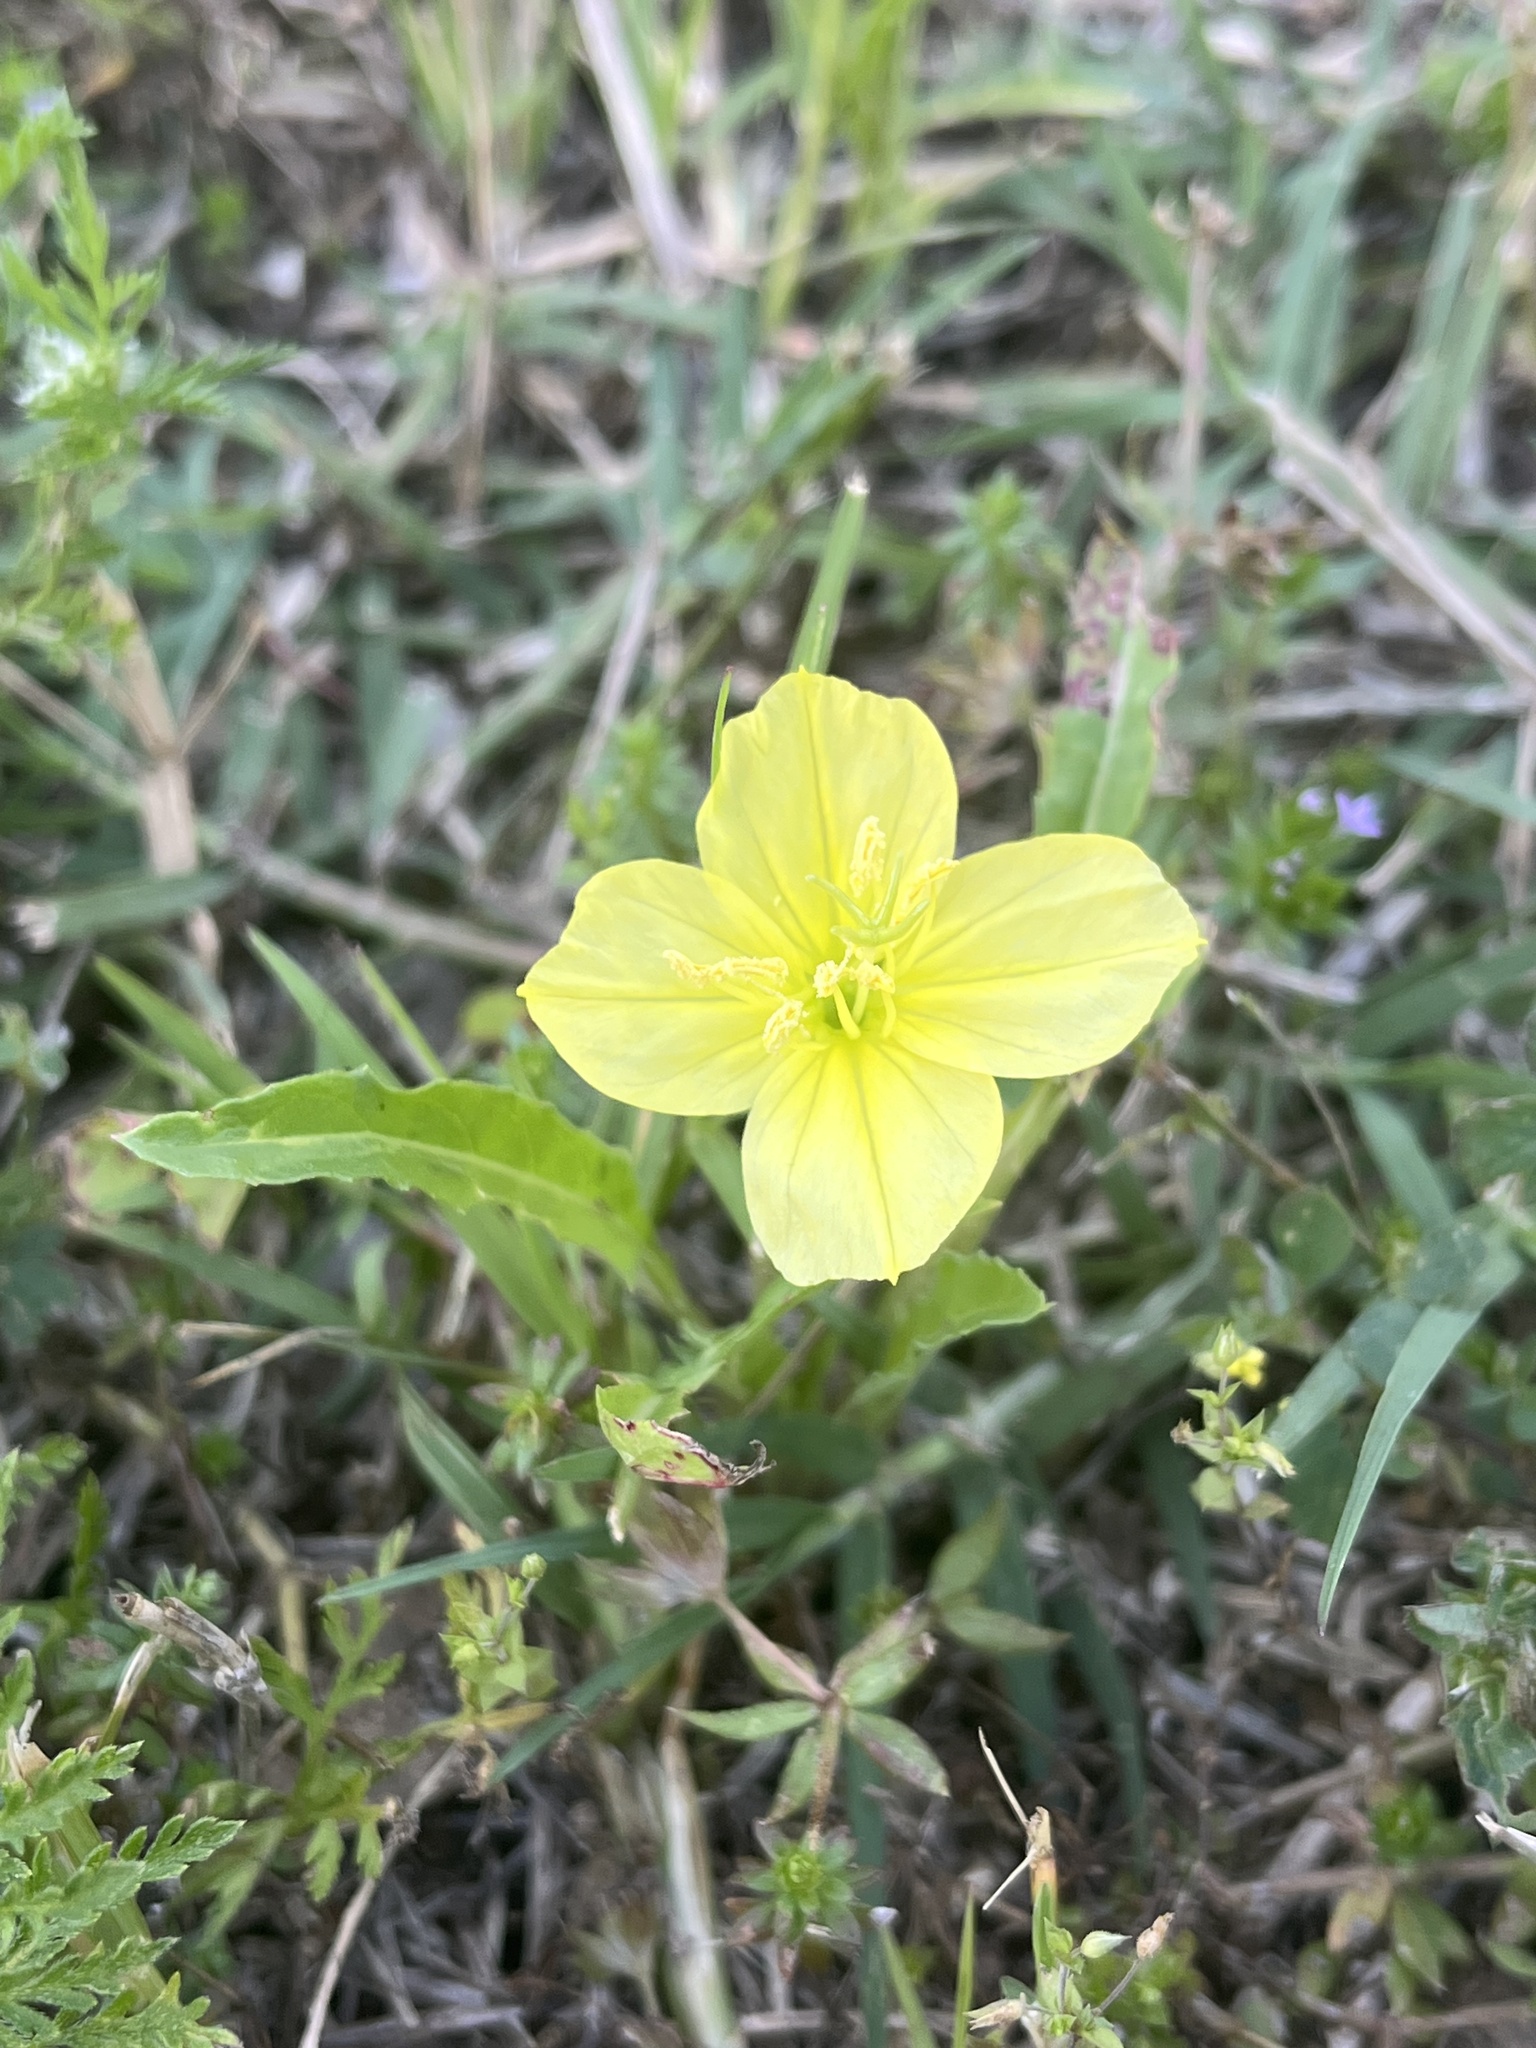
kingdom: Plantae
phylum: Tracheophyta
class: Magnoliopsida
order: Myrtales
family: Onagraceae
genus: Oenothera
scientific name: Oenothera triloba
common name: Sessile evening-primrose
